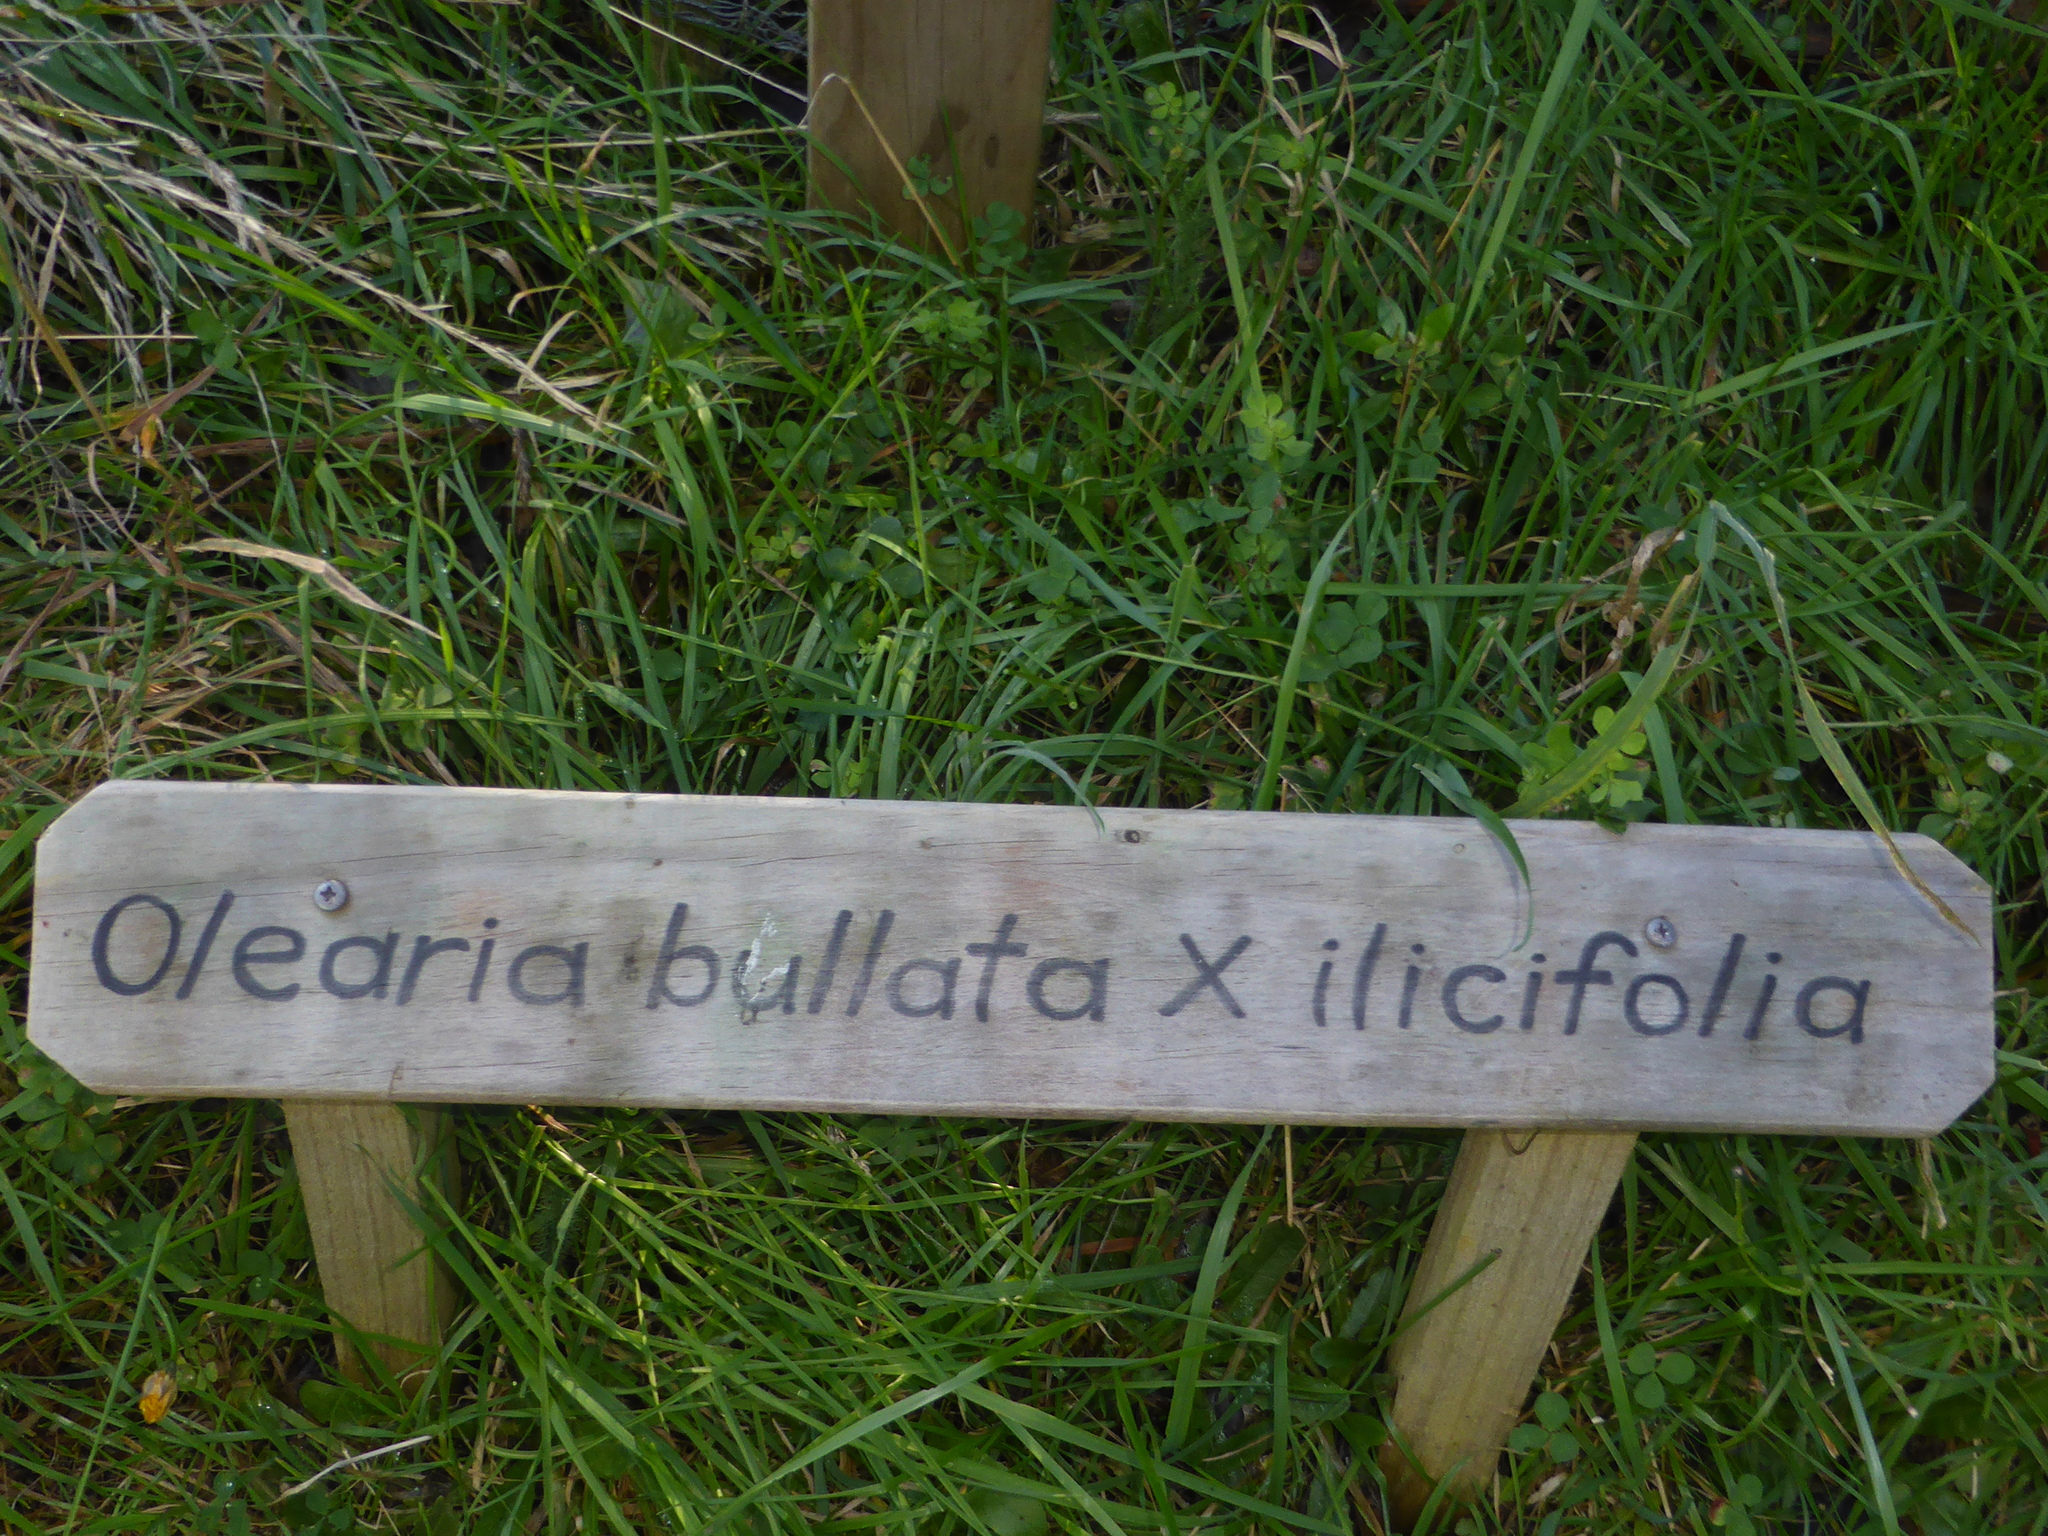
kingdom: Plantae
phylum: Tracheophyta
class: Magnoliopsida
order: Asterales
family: Asteraceae
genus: Olearia
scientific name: Olearia bullata
